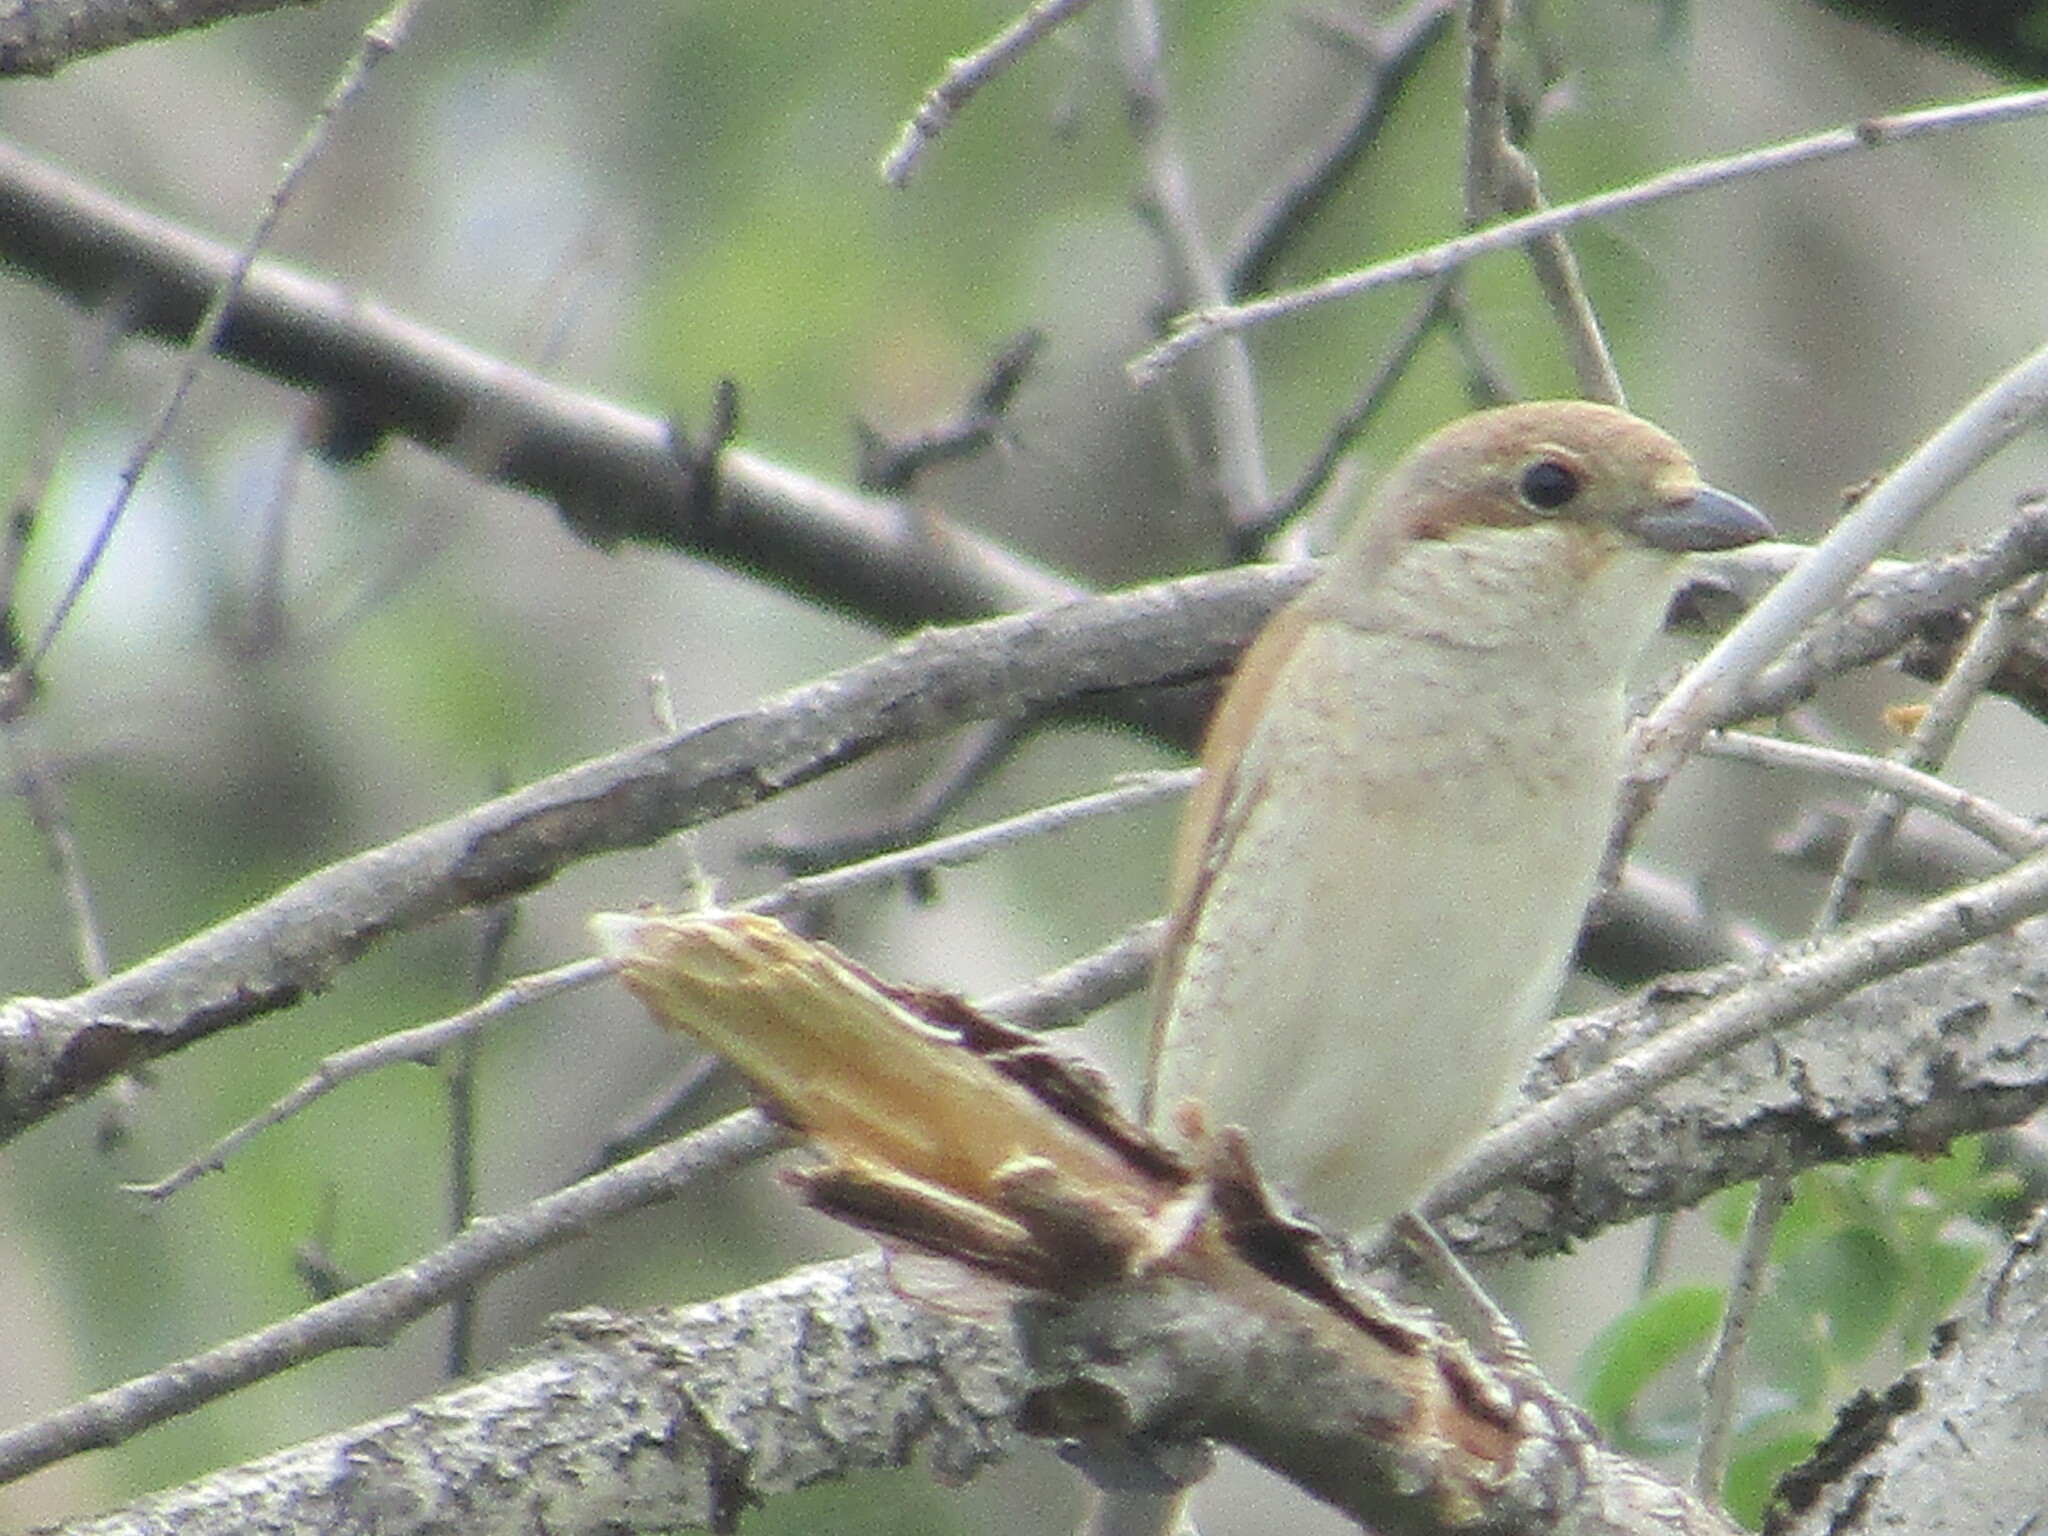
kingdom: Animalia
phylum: Chordata
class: Aves
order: Passeriformes
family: Laniidae
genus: Lanius
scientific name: Lanius collurio
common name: Red-backed shrike
